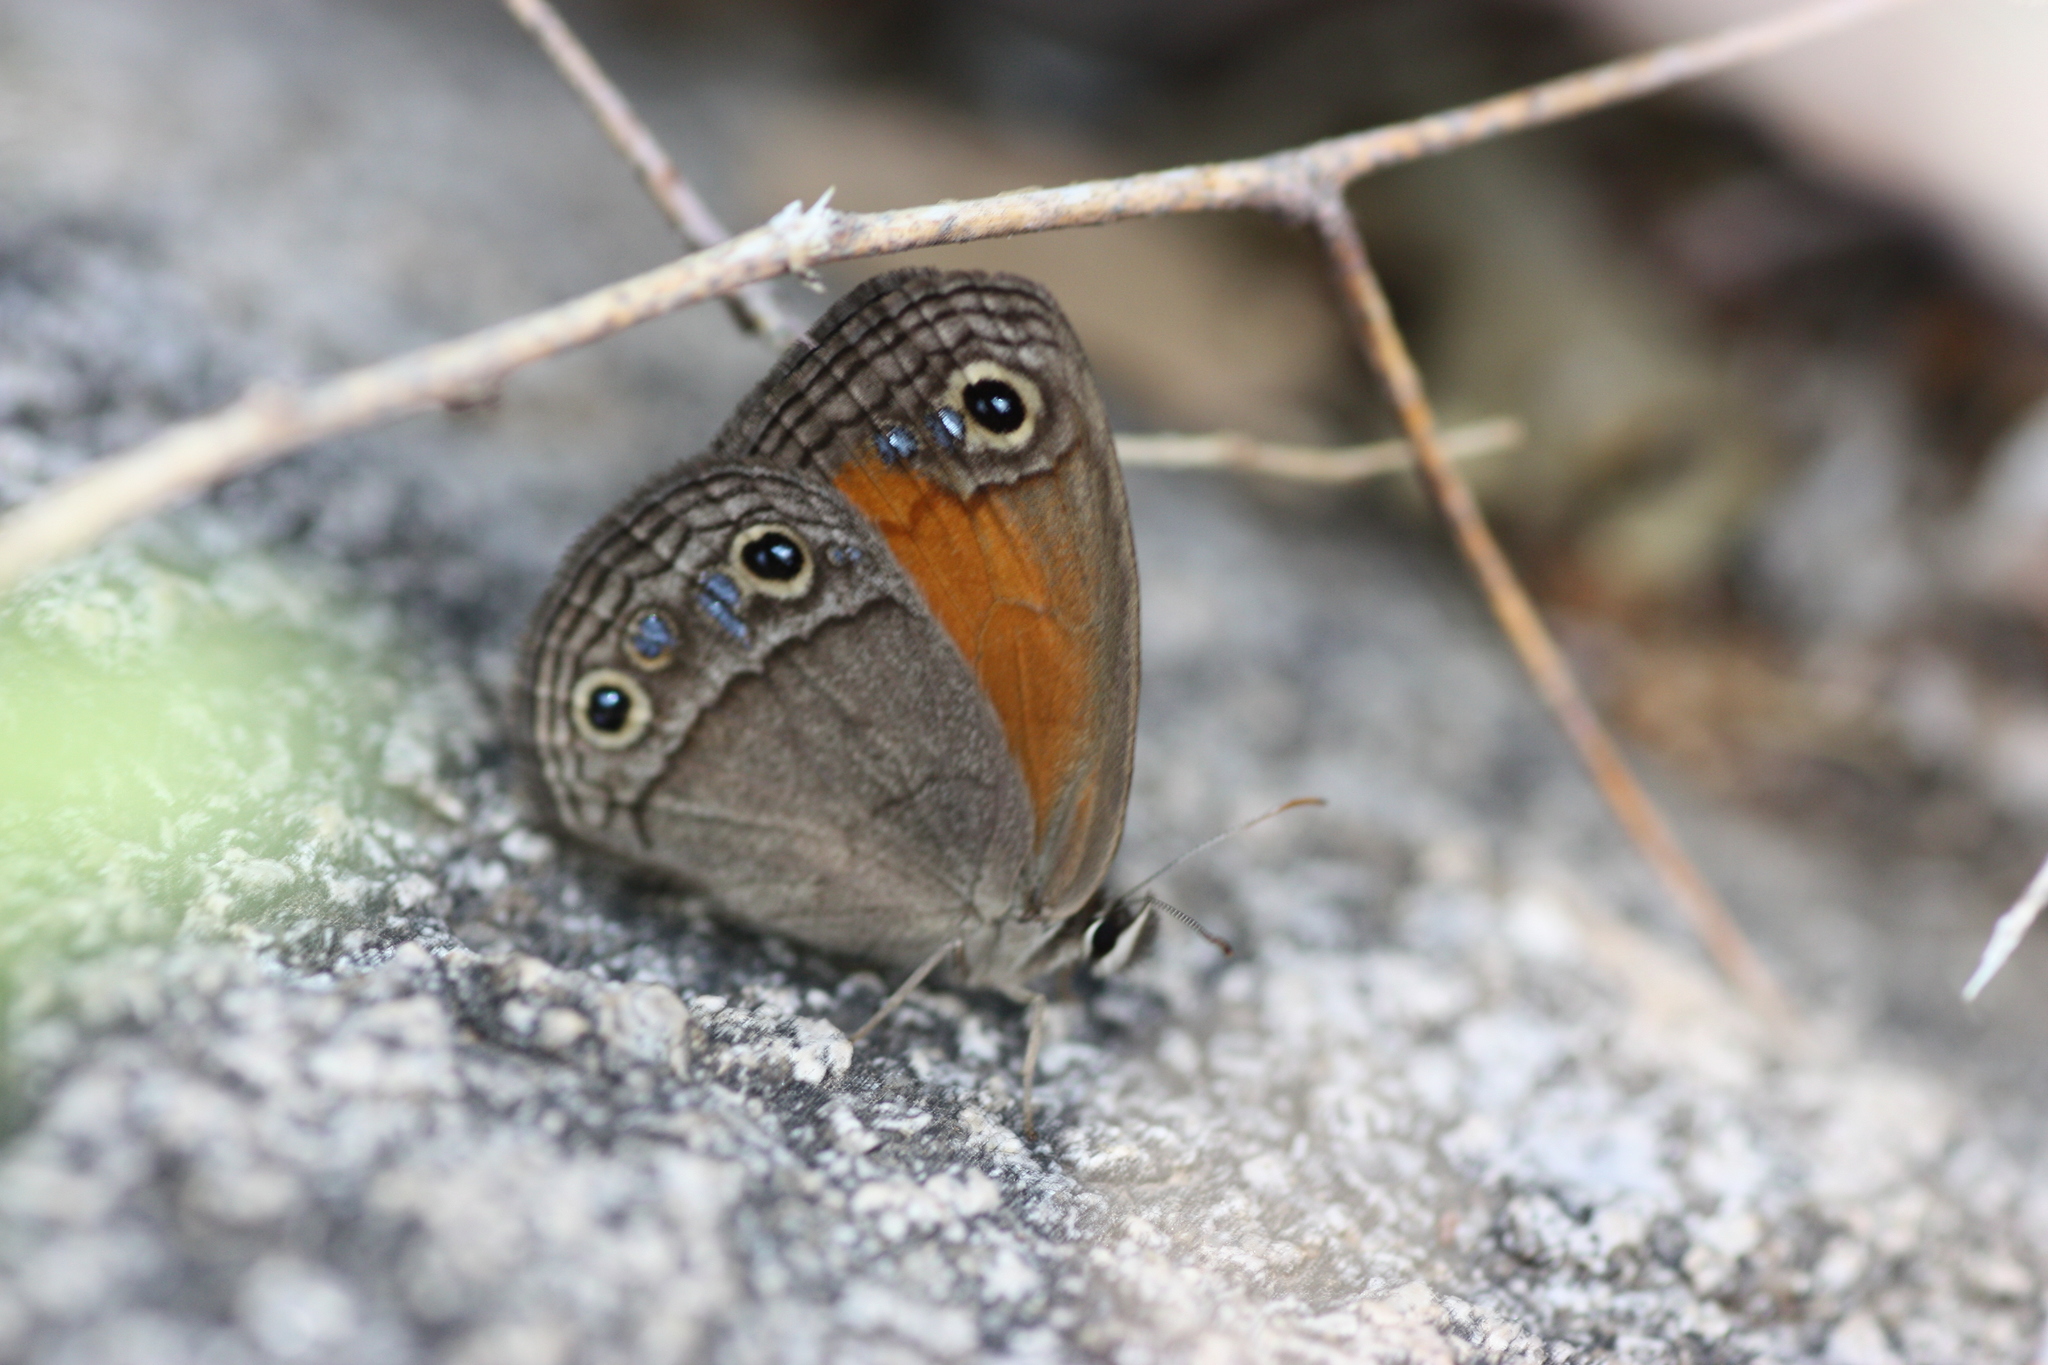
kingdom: Animalia
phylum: Arthropoda
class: Insecta
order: Lepidoptera
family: Nymphalidae
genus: Euptychia
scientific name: Euptychia Cissia rubricata
